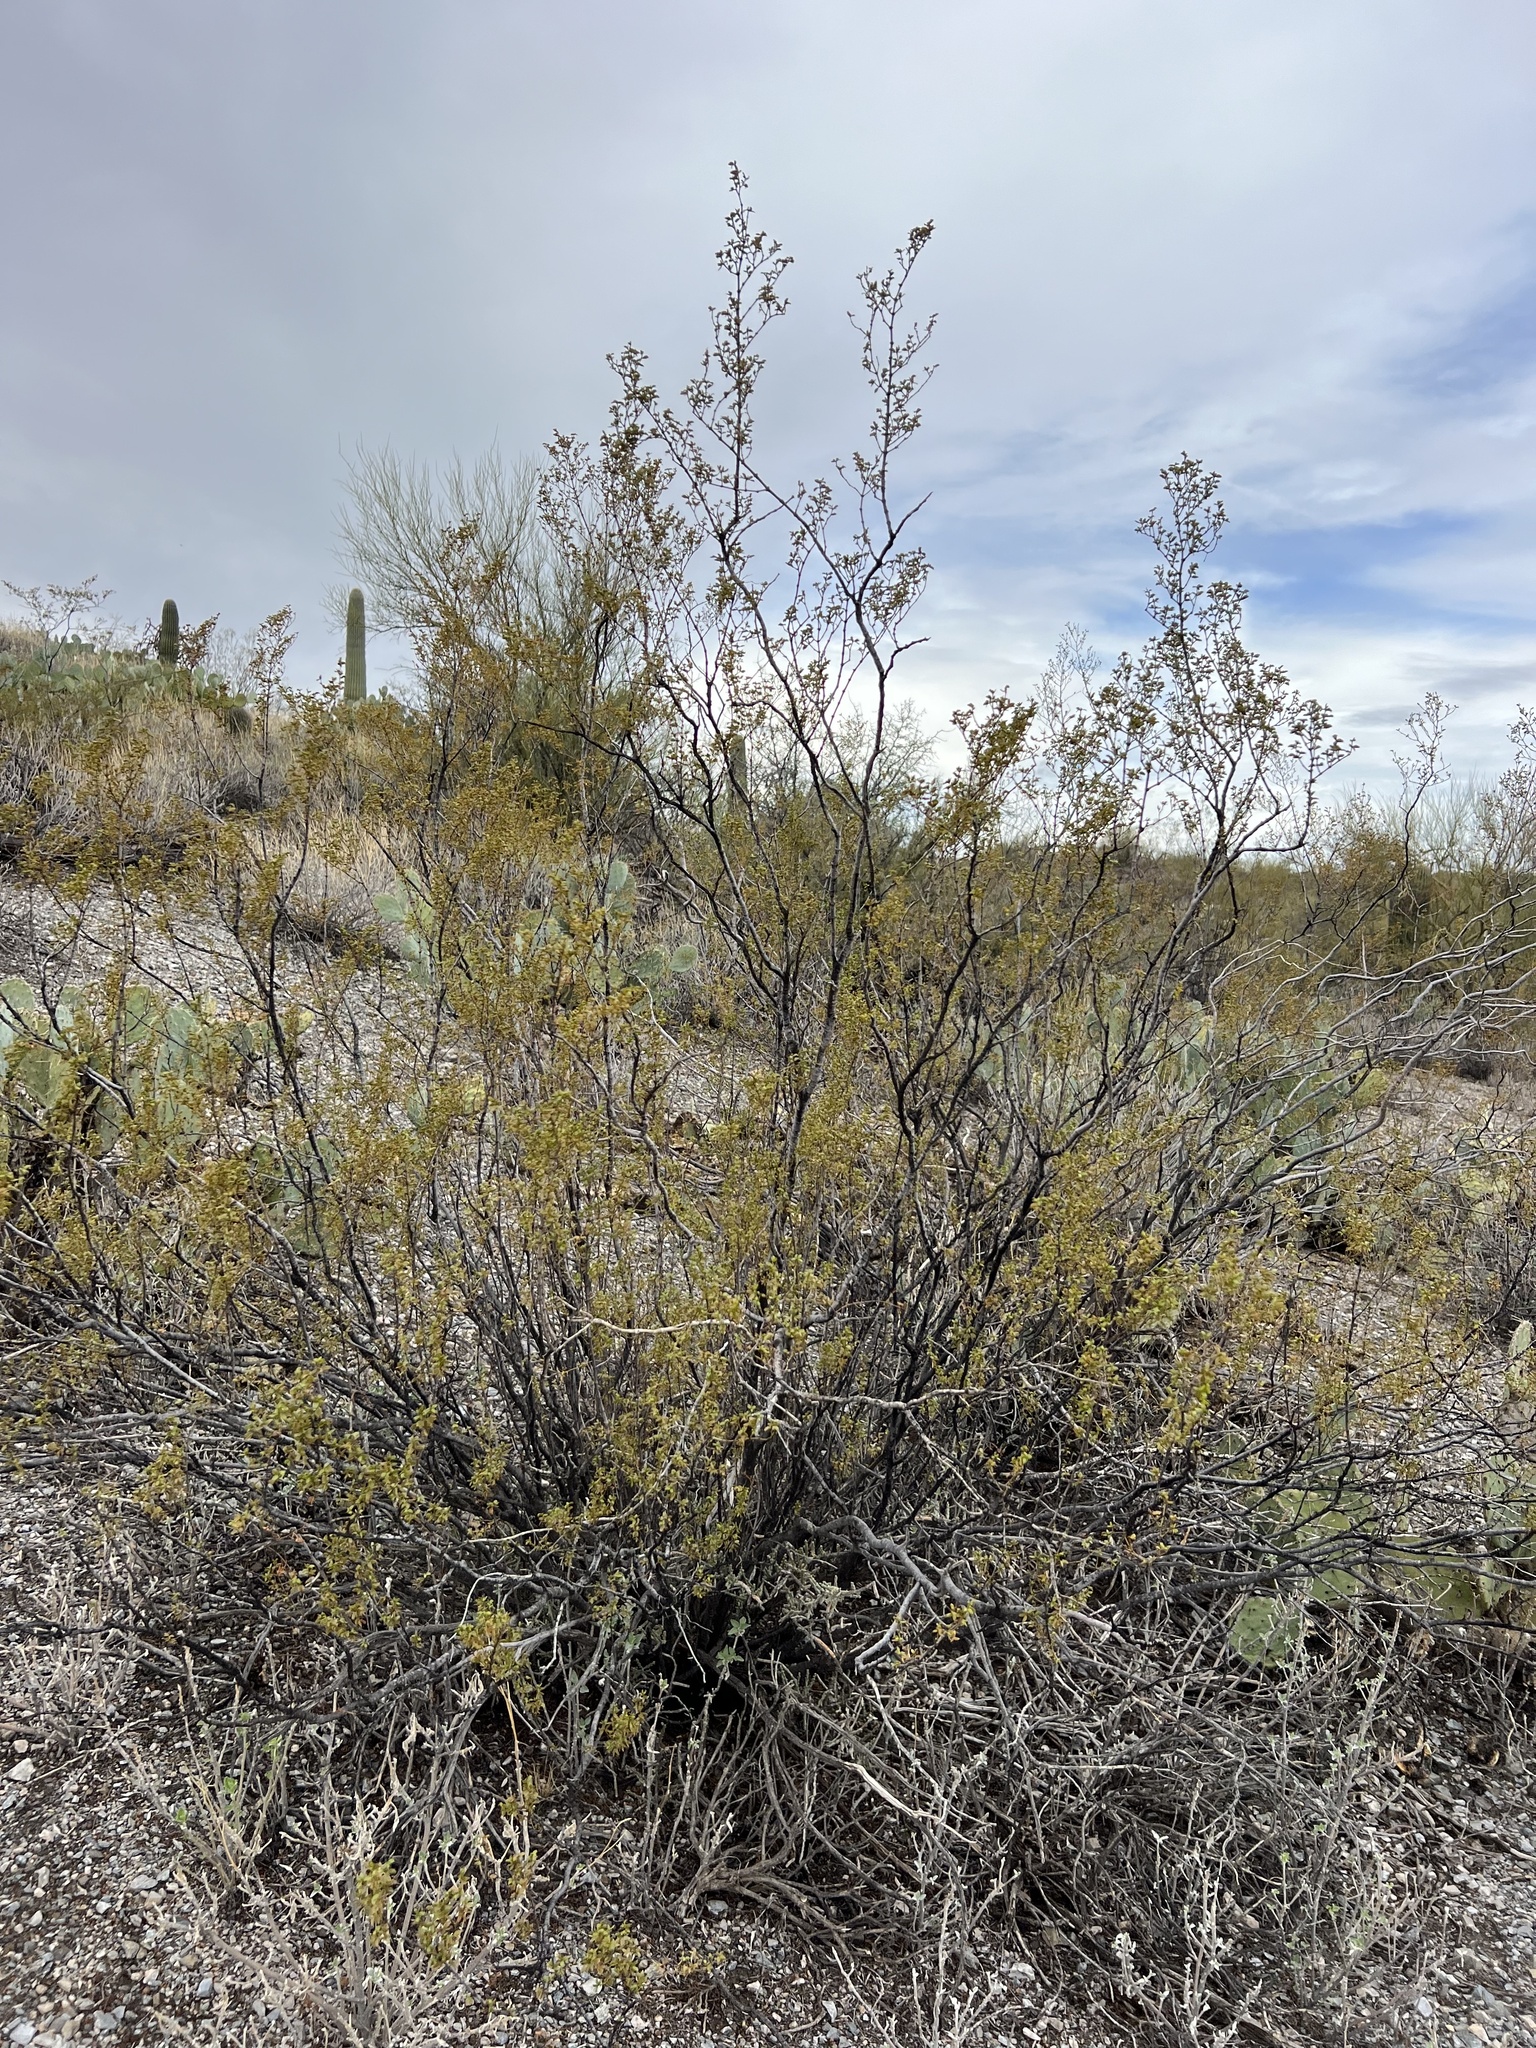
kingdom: Plantae
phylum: Tracheophyta
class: Magnoliopsida
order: Zygophyllales
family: Zygophyllaceae
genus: Larrea
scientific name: Larrea tridentata
